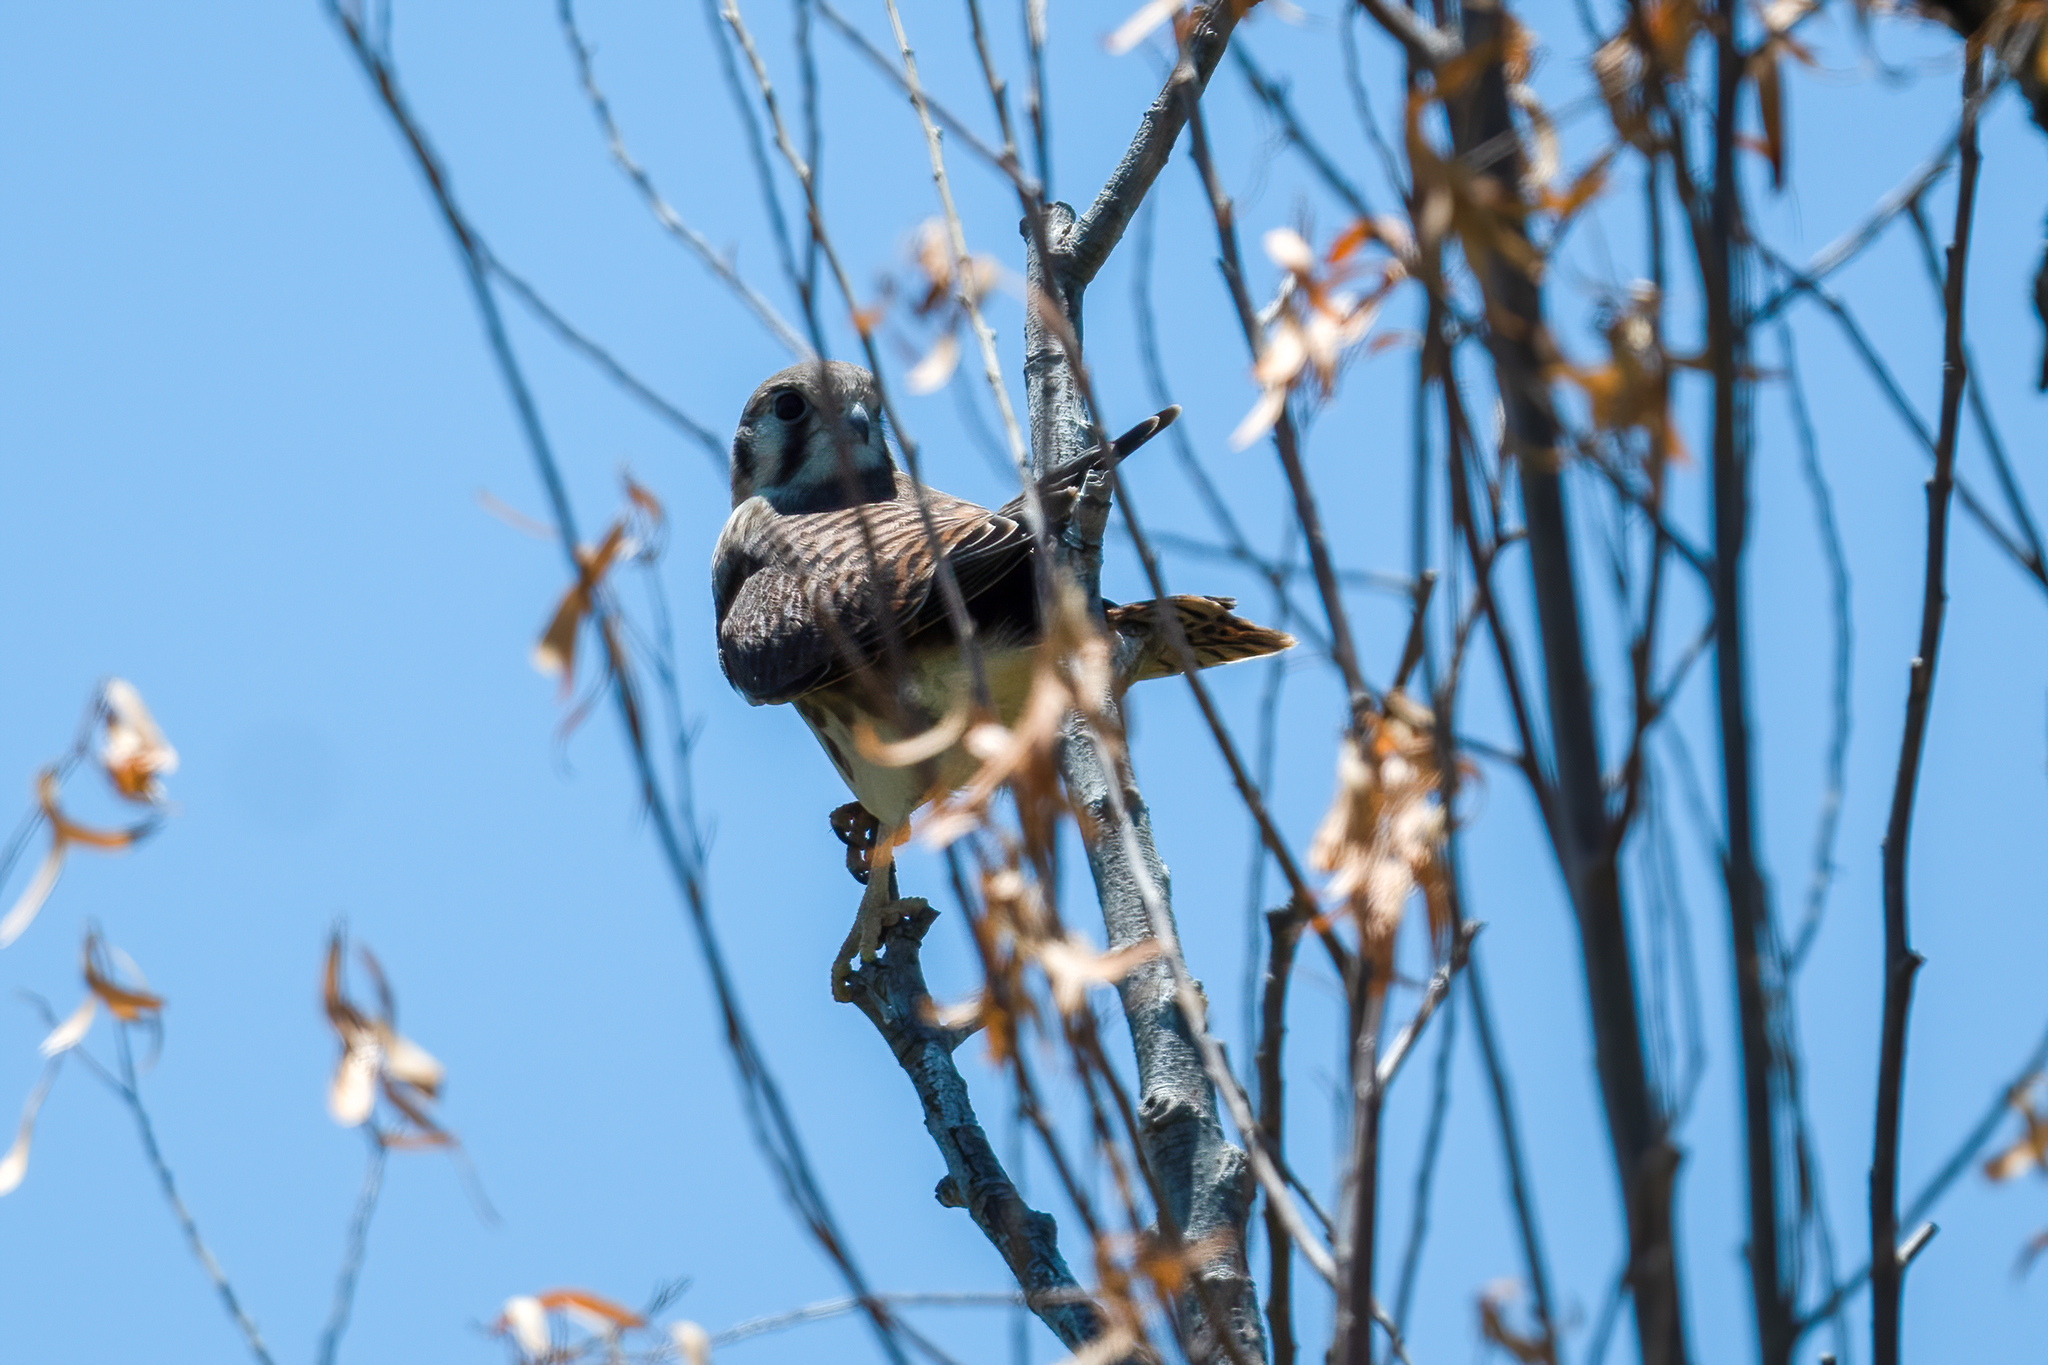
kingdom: Animalia
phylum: Chordata
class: Aves
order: Falconiformes
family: Falconidae
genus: Falco
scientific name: Falco sparverius
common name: American kestrel
